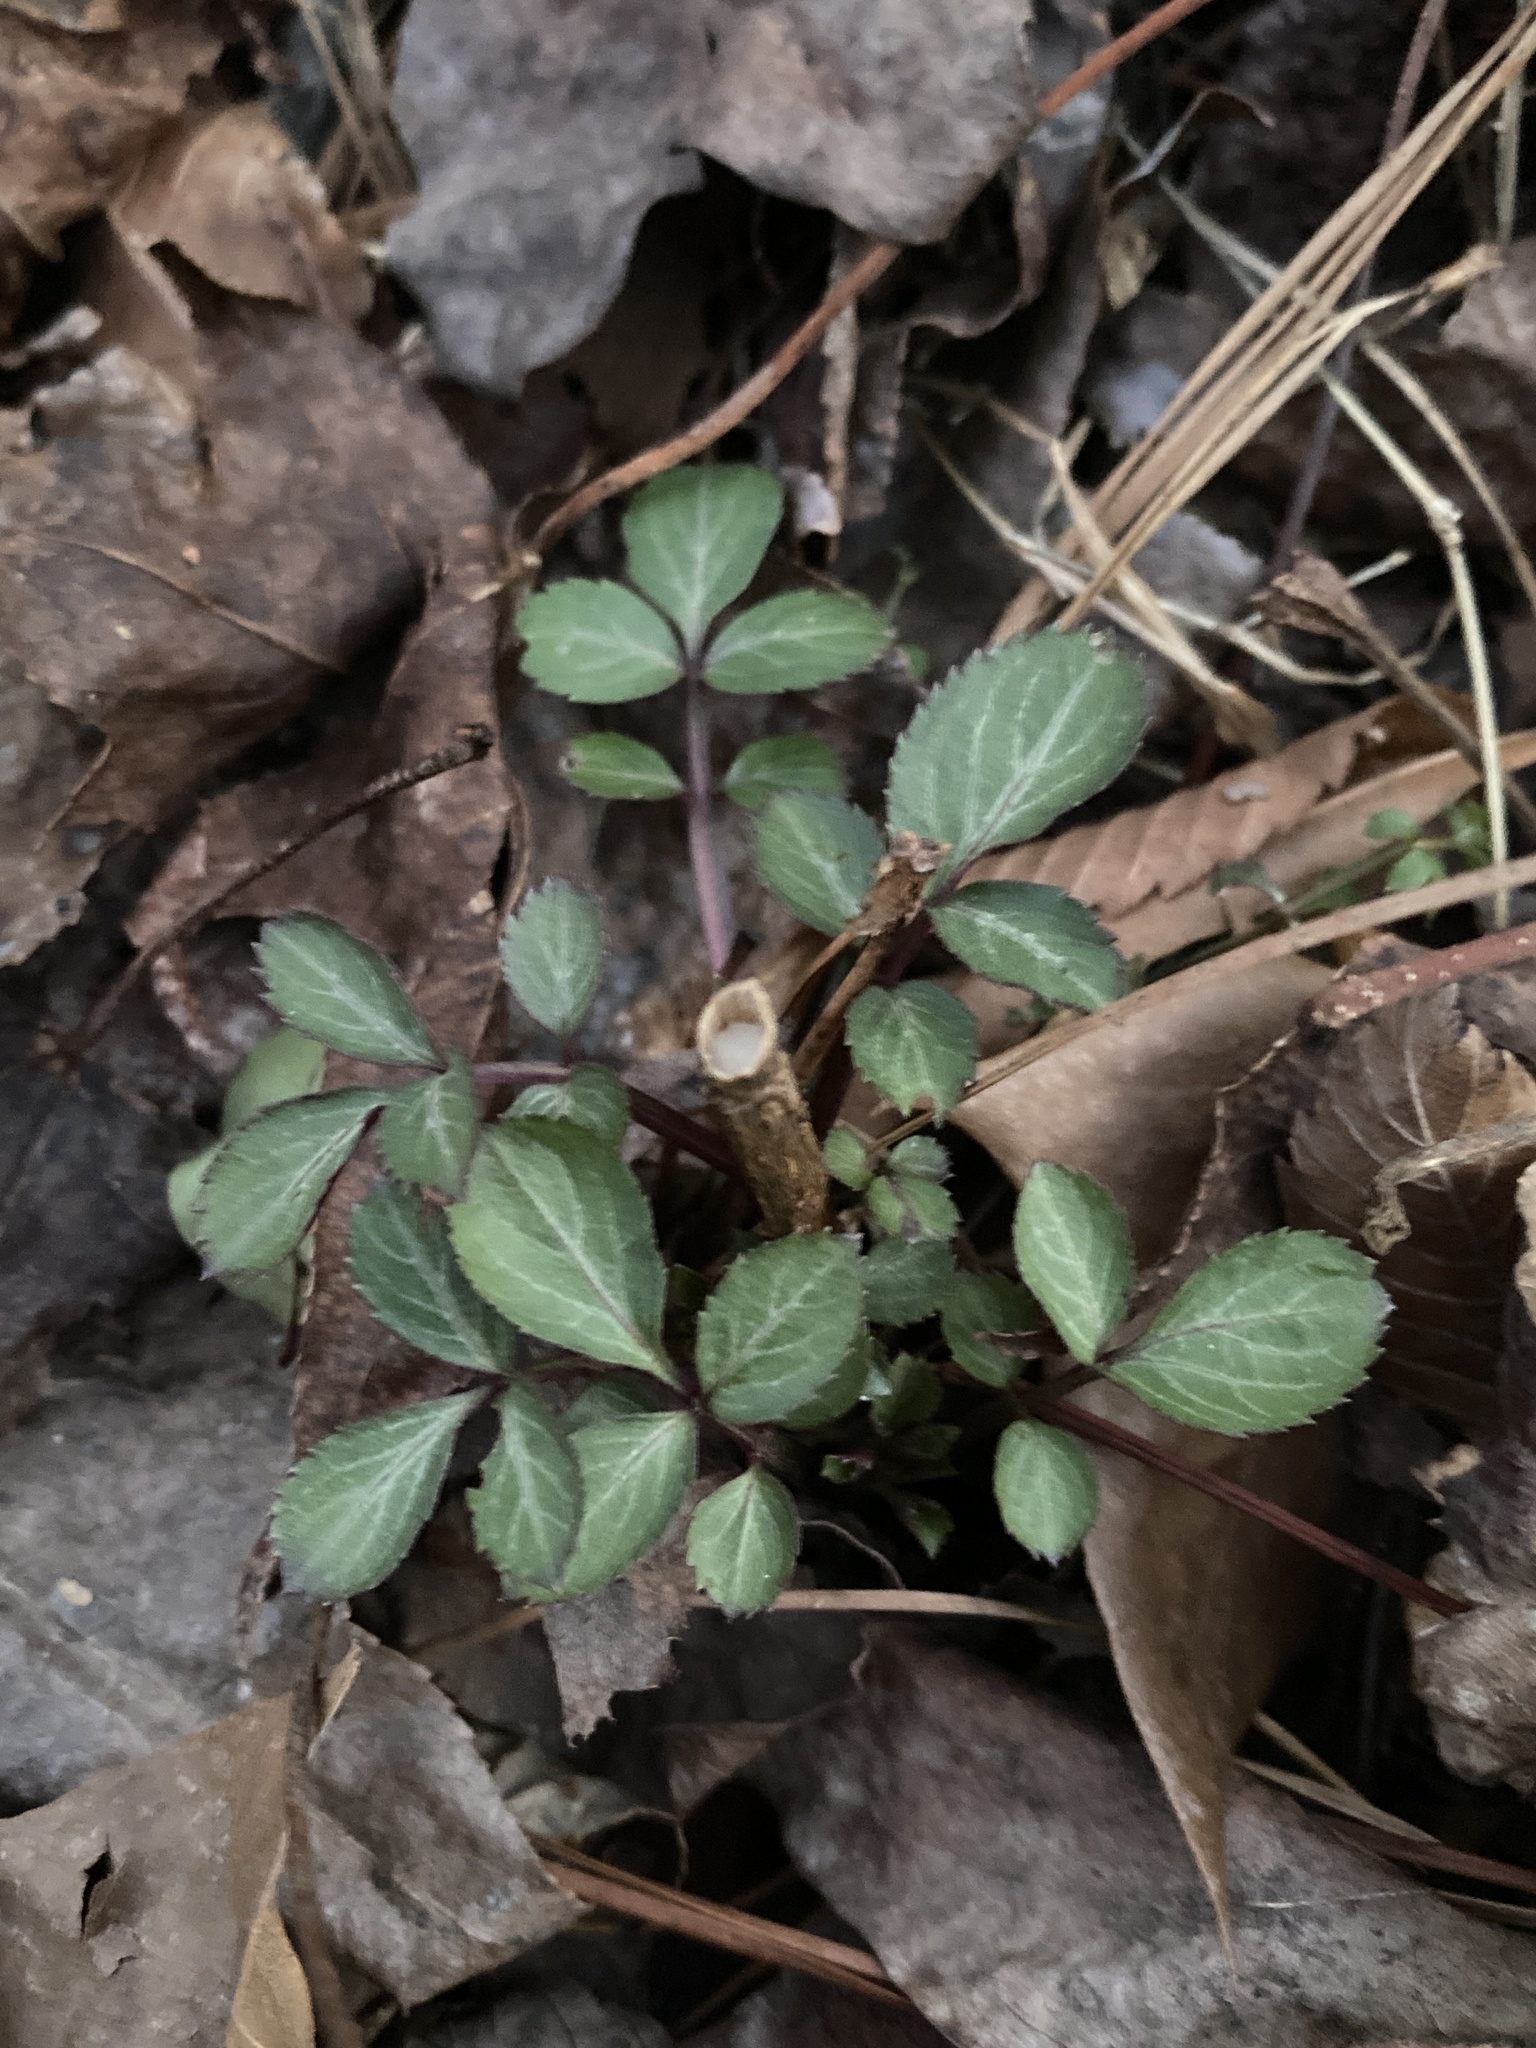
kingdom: Plantae
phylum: Tracheophyta
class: Magnoliopsida
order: Dipsacales
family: Viburnaceae
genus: Sambucus
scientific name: Sambucus canadensis
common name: American elder
